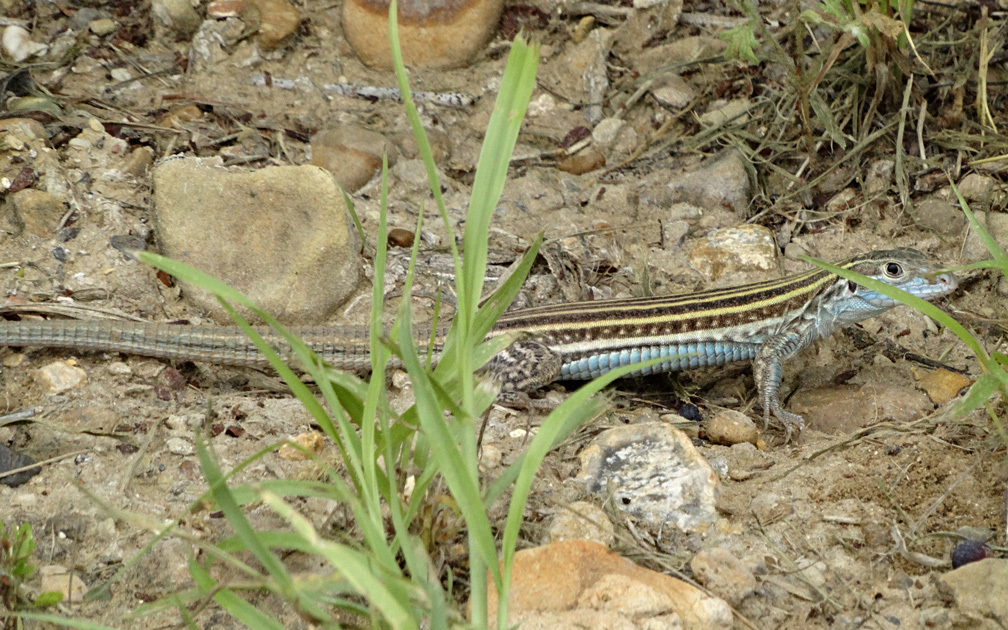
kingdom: Animalia
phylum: Chordata
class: Squamata
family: Teiidae
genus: Aspidoscelis
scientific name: Aspidoscelis laredoensis
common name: Laredo striped whiptail
